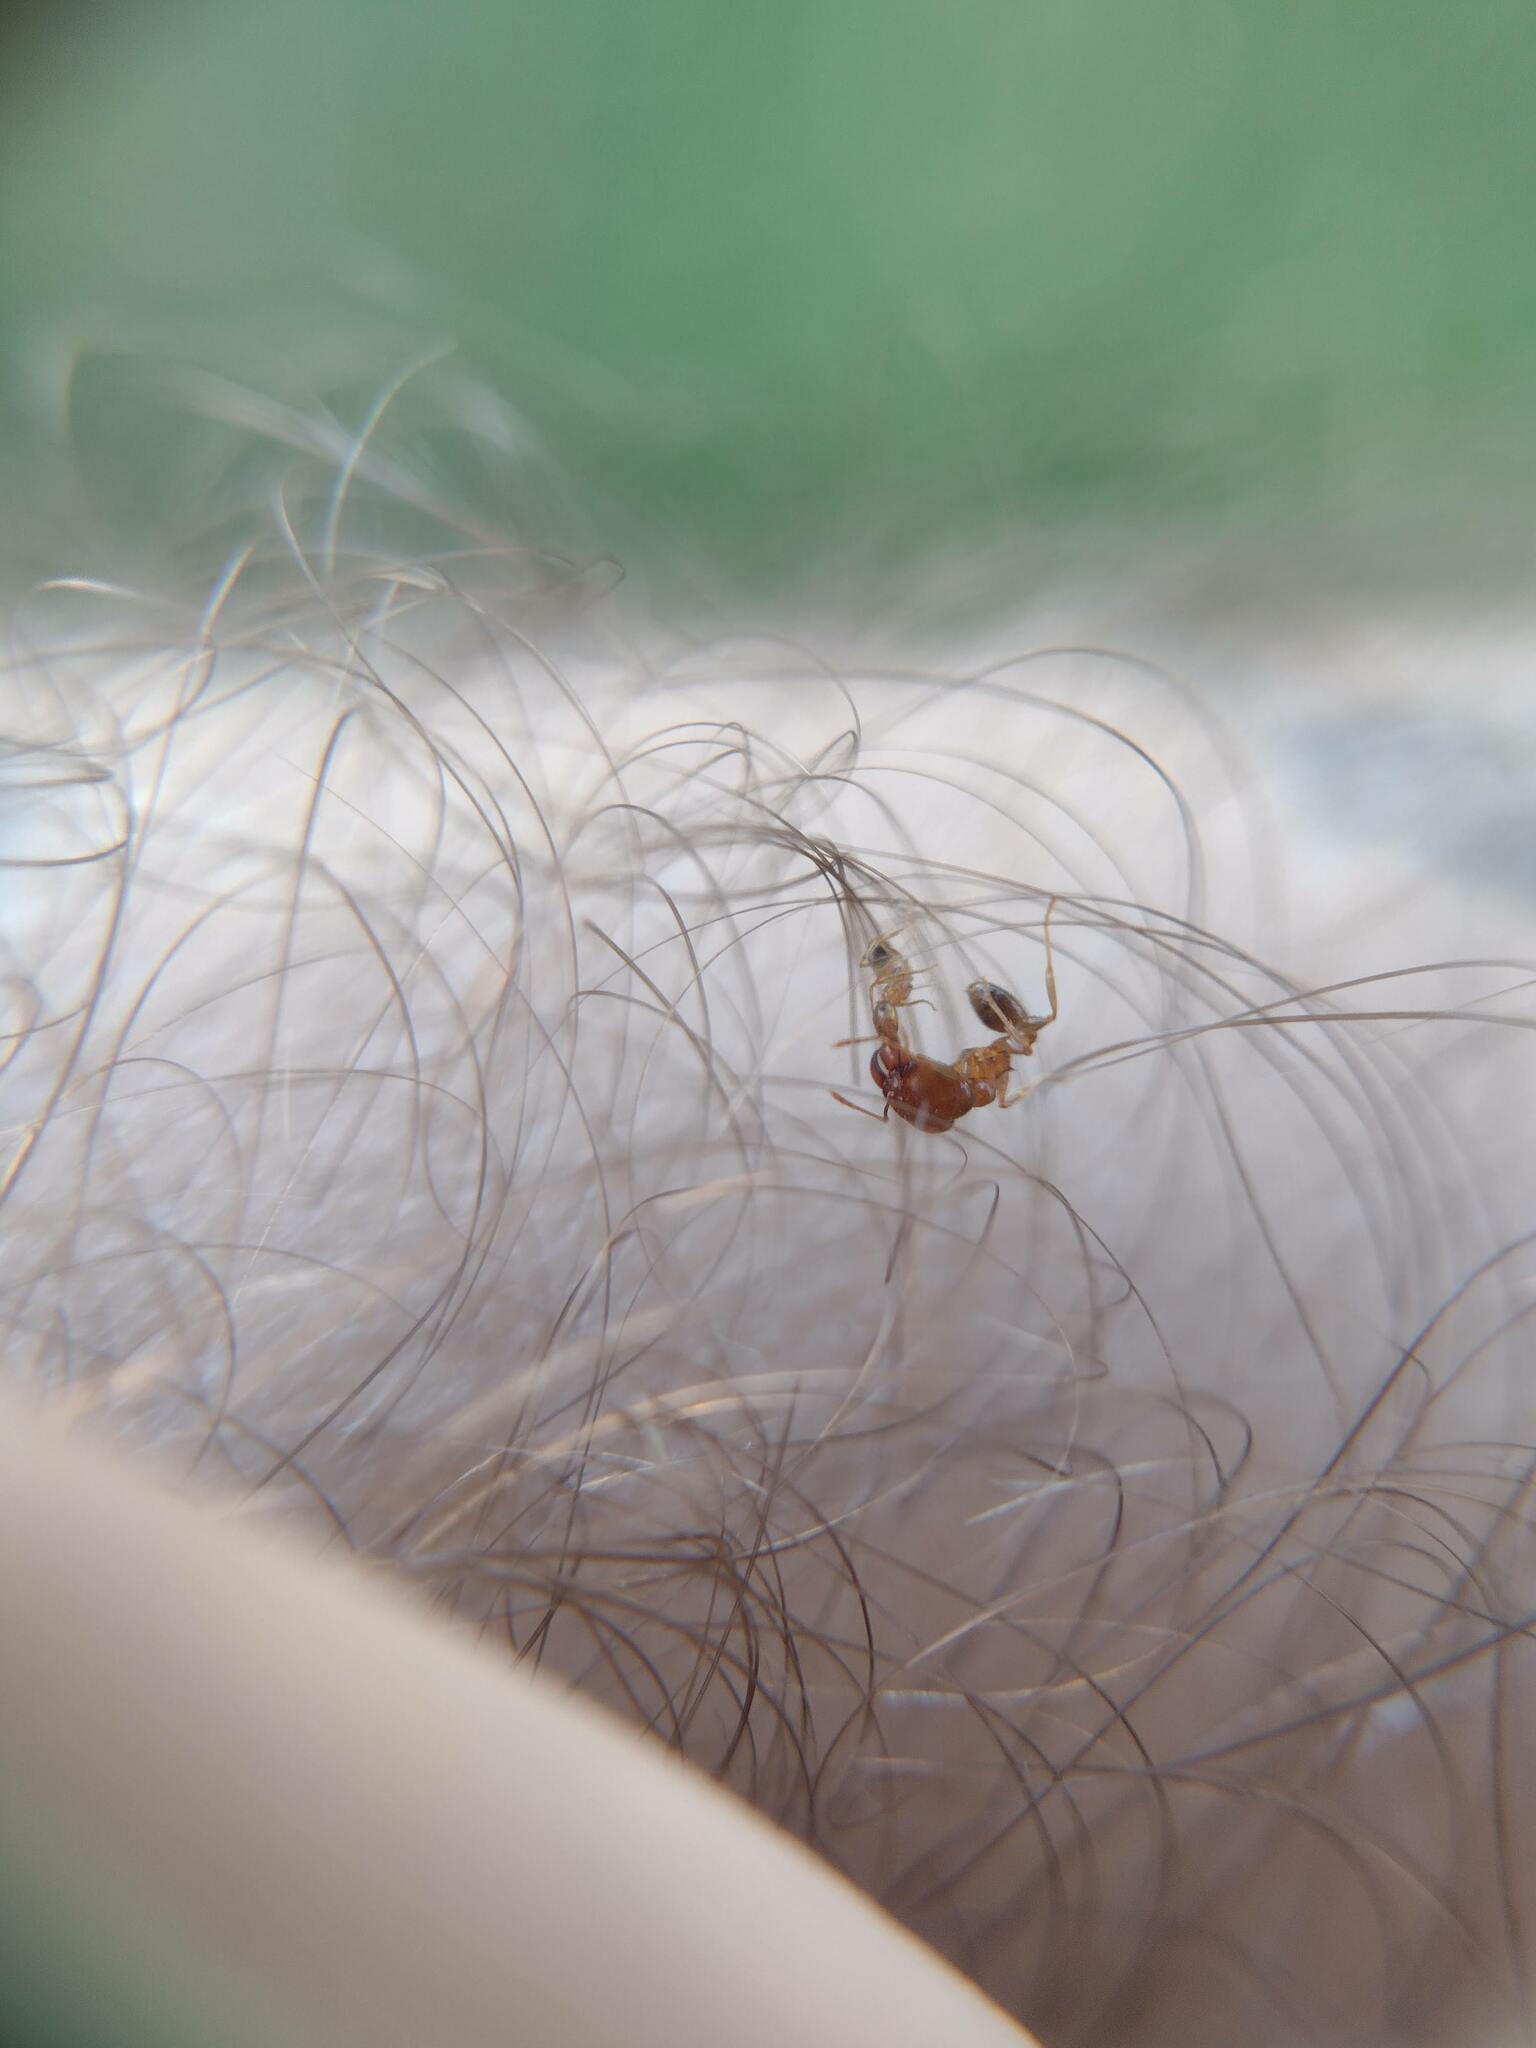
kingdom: Animalia
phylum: Arthropoda
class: Insecta
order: Hymenoptera
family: Formicidae
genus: Pheidole
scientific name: Pheidole megacephala
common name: Bigheaded ant
